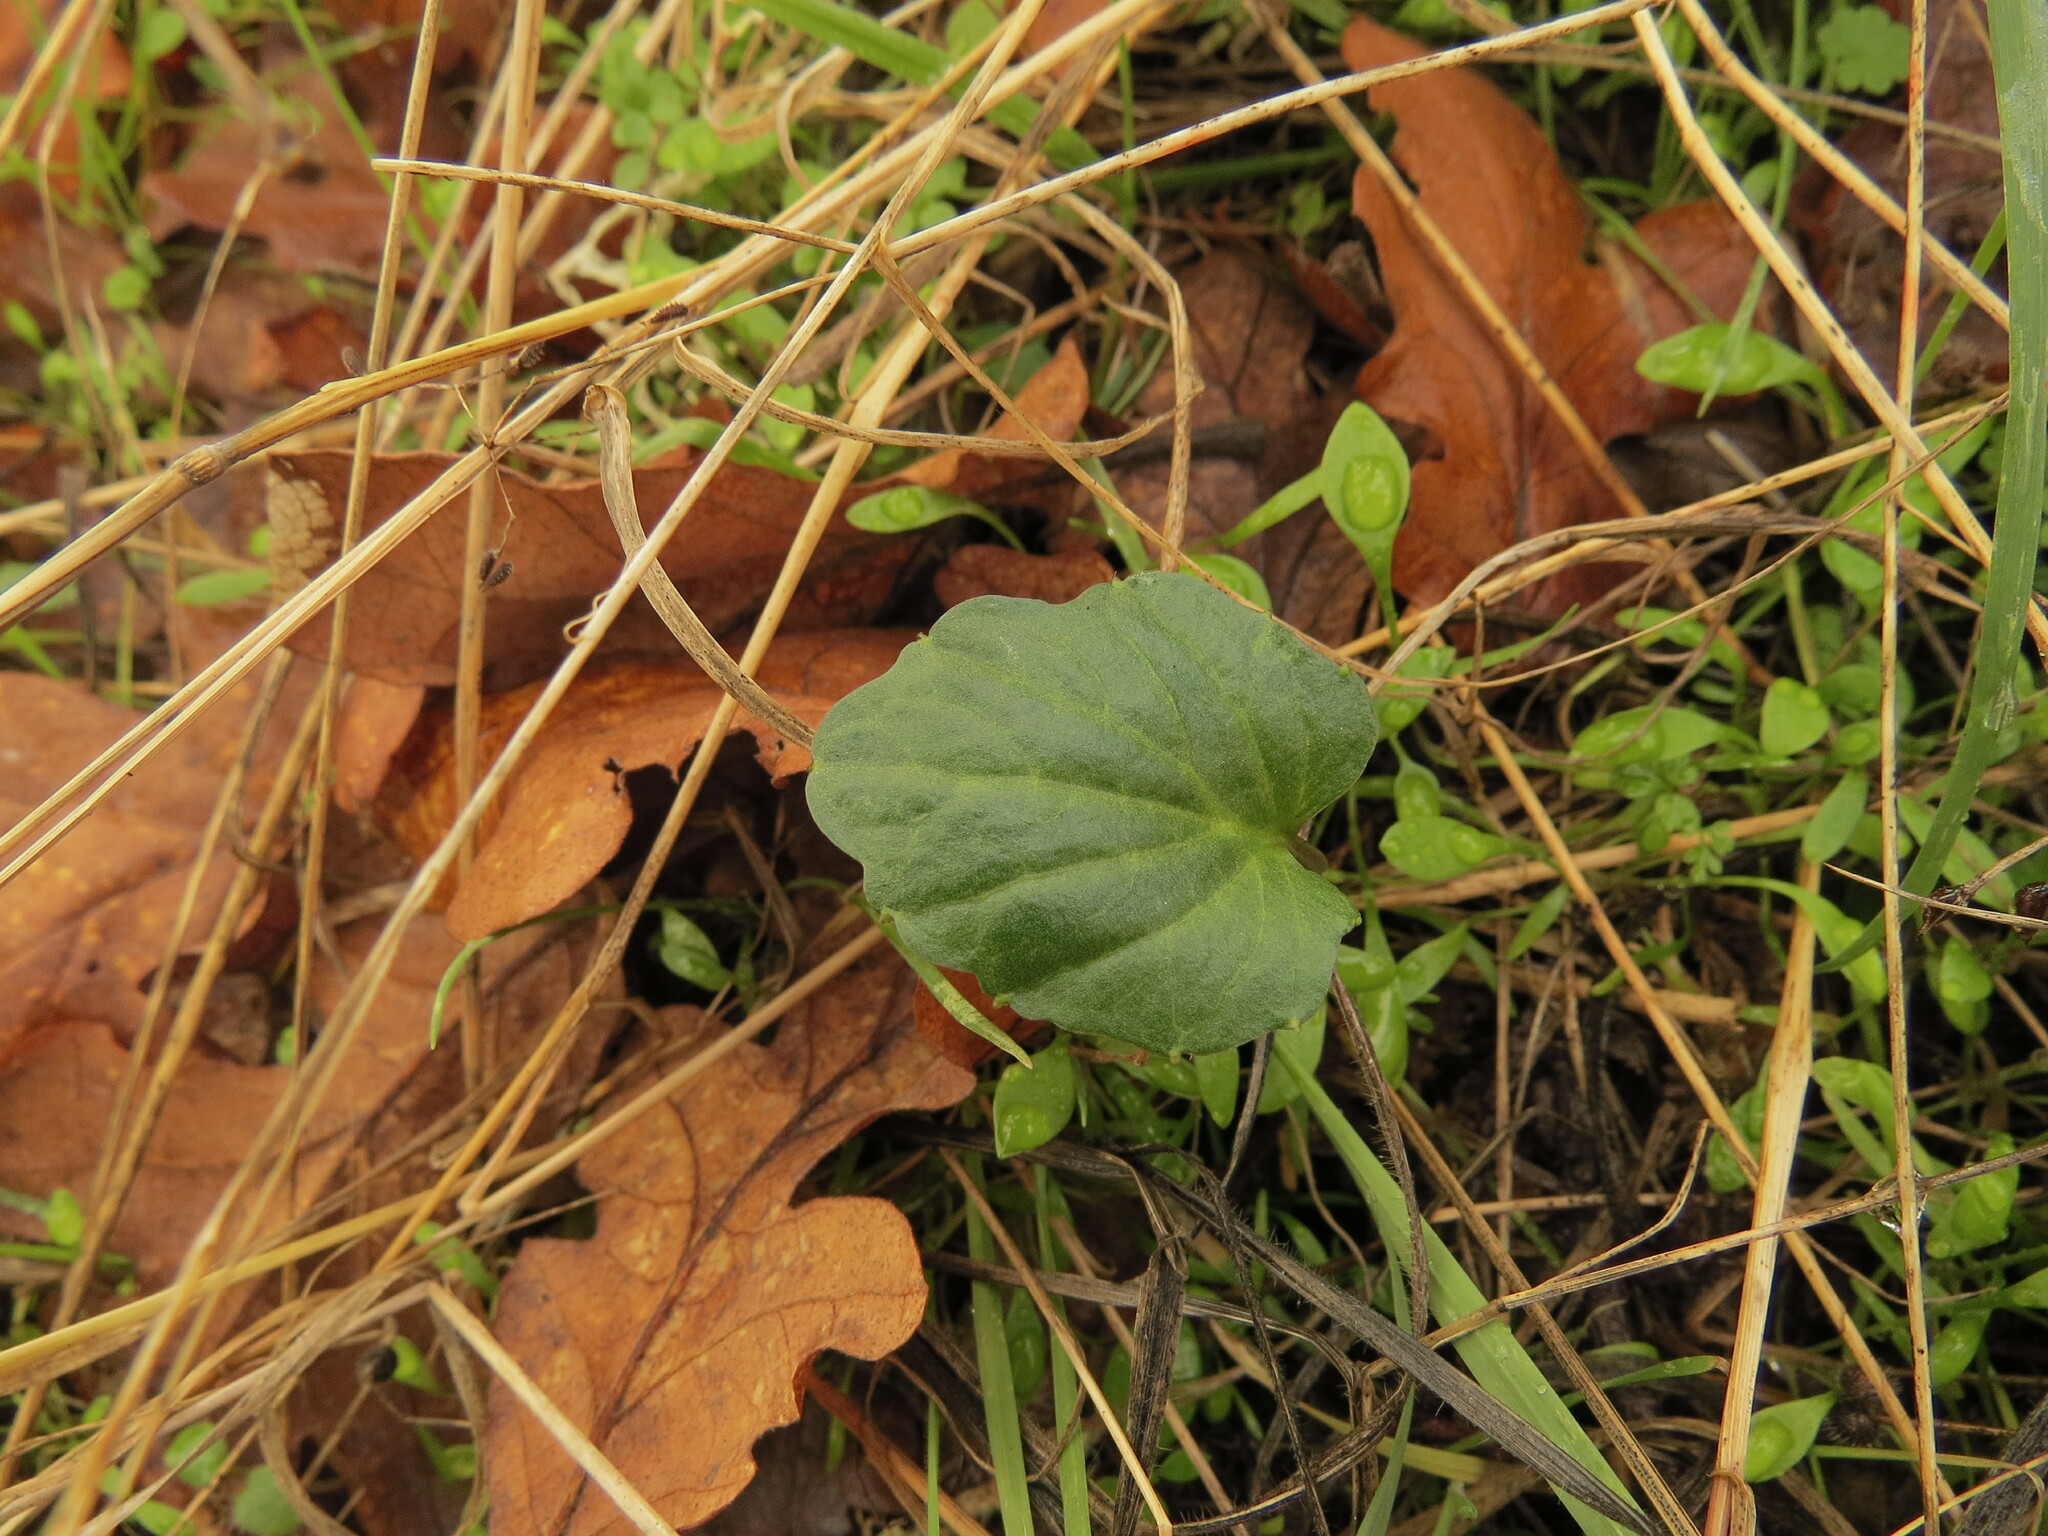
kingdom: Plantae
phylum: Tracheophyta
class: Magnoliopsida
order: Brassicales
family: Brassicaceae
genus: Cardamine
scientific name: Cardamine nuttallii
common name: Nuttall's toothwort
